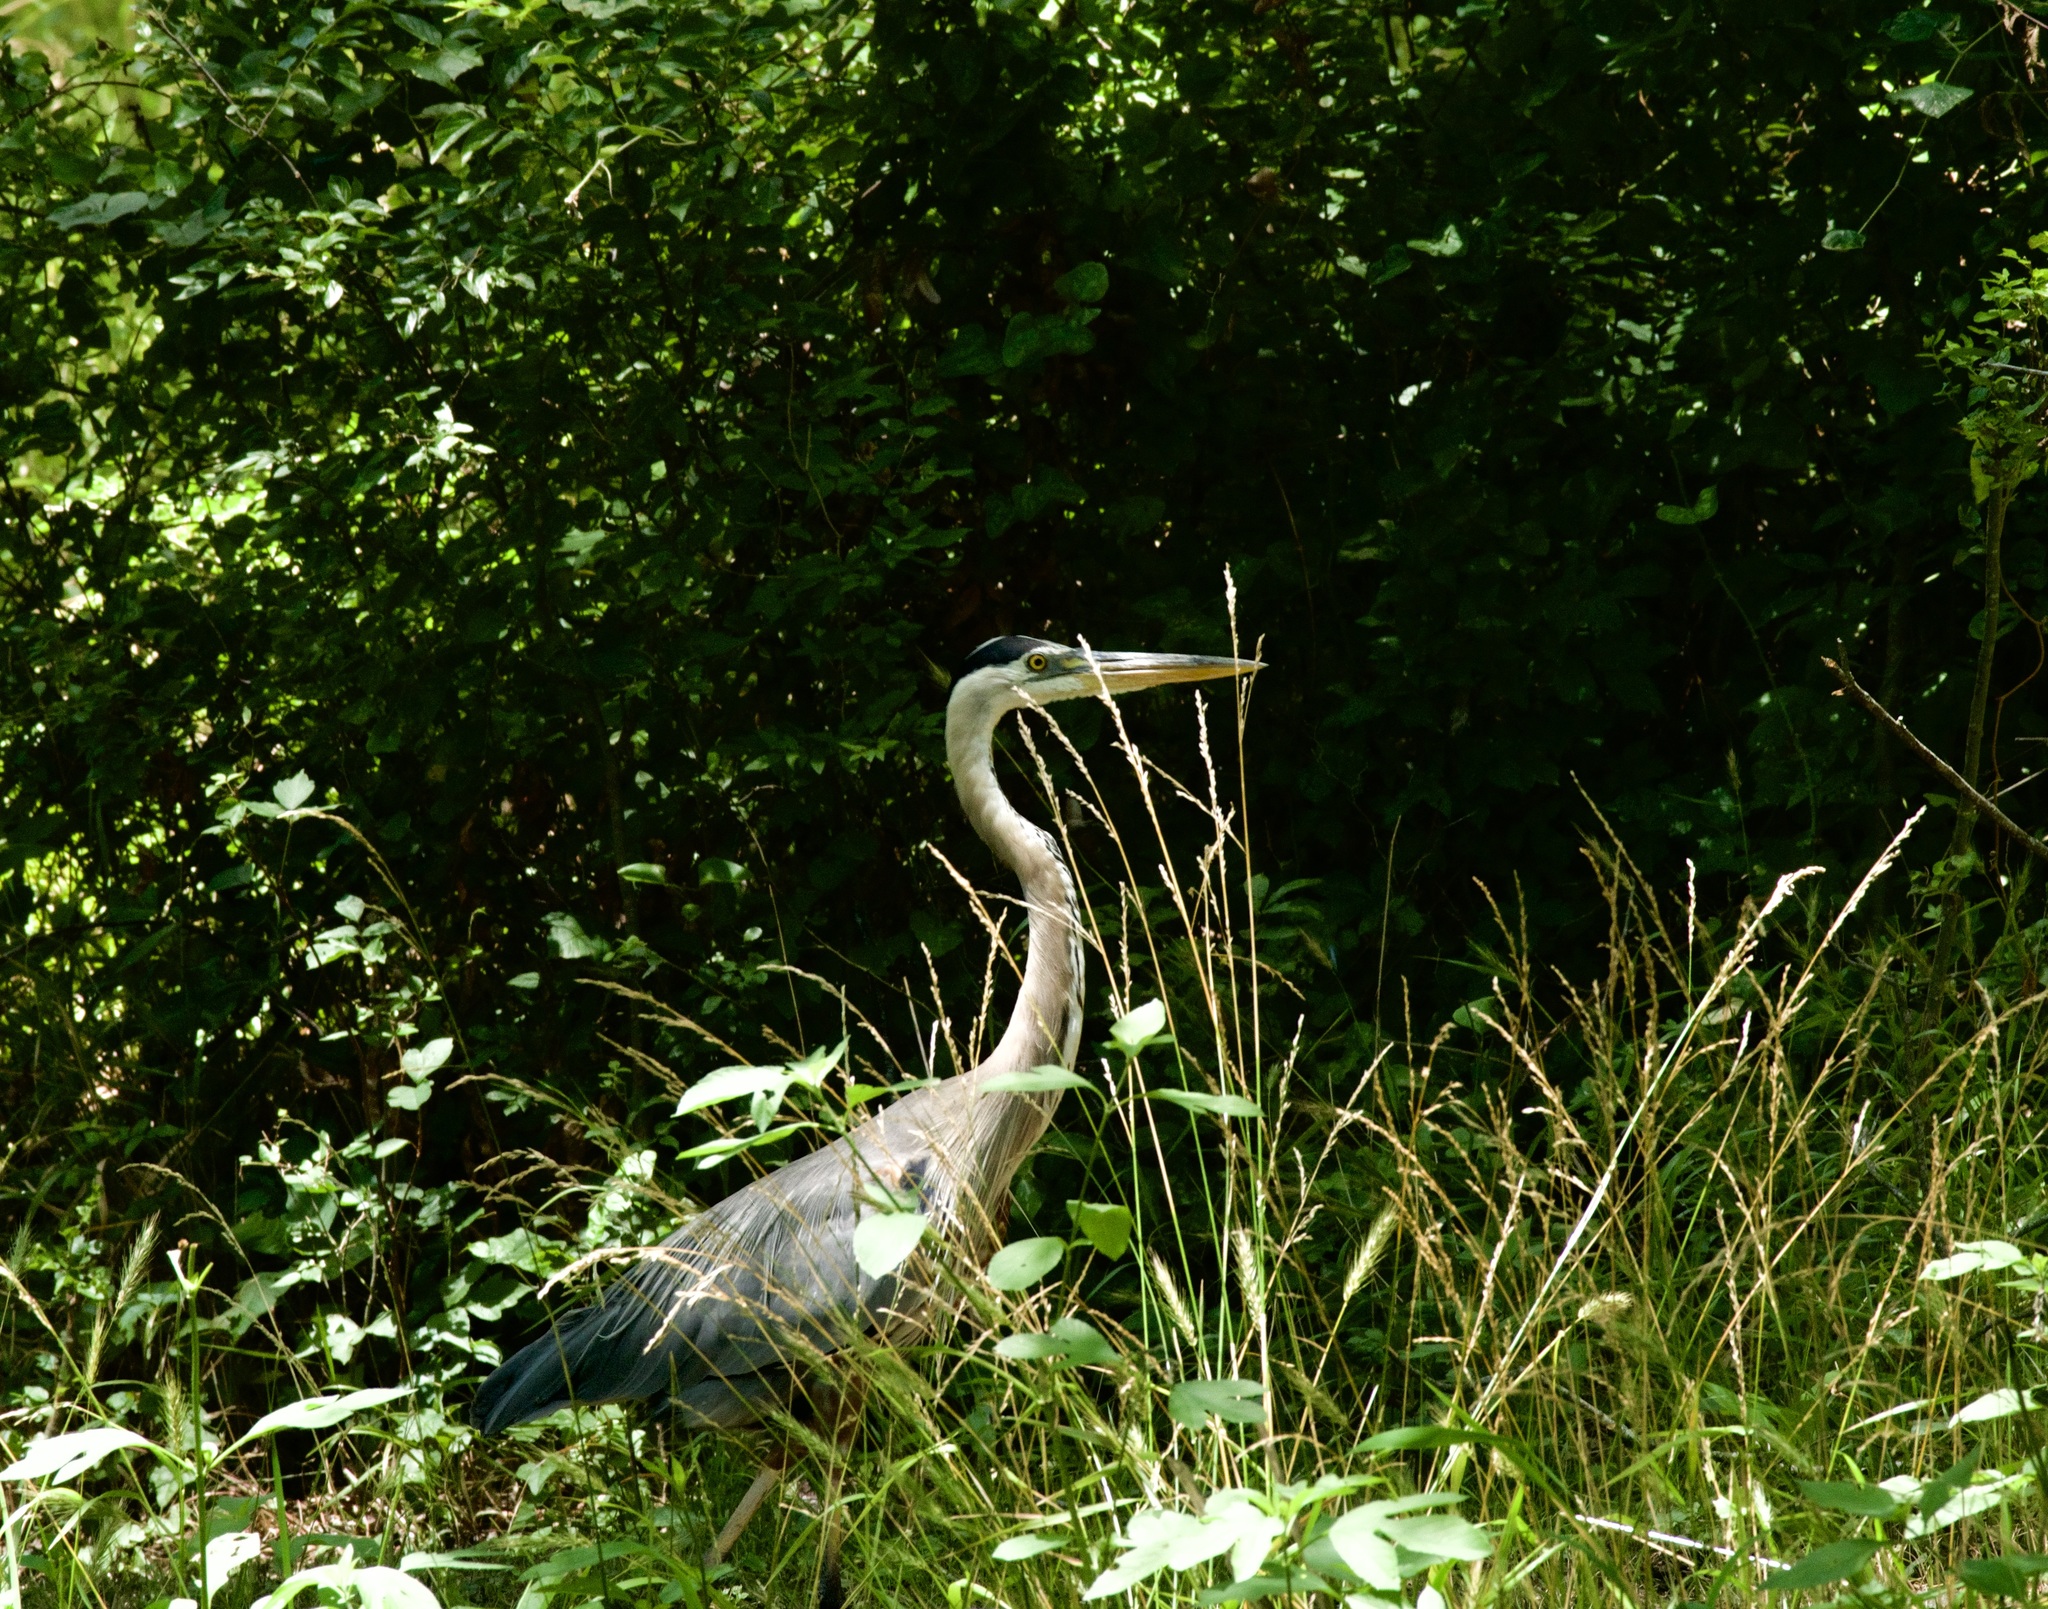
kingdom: Animalia
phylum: Chordata
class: Aves
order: Pelecaniformes
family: Ardeidae
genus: Ardea
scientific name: Ardea herodias
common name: Great blue heron
